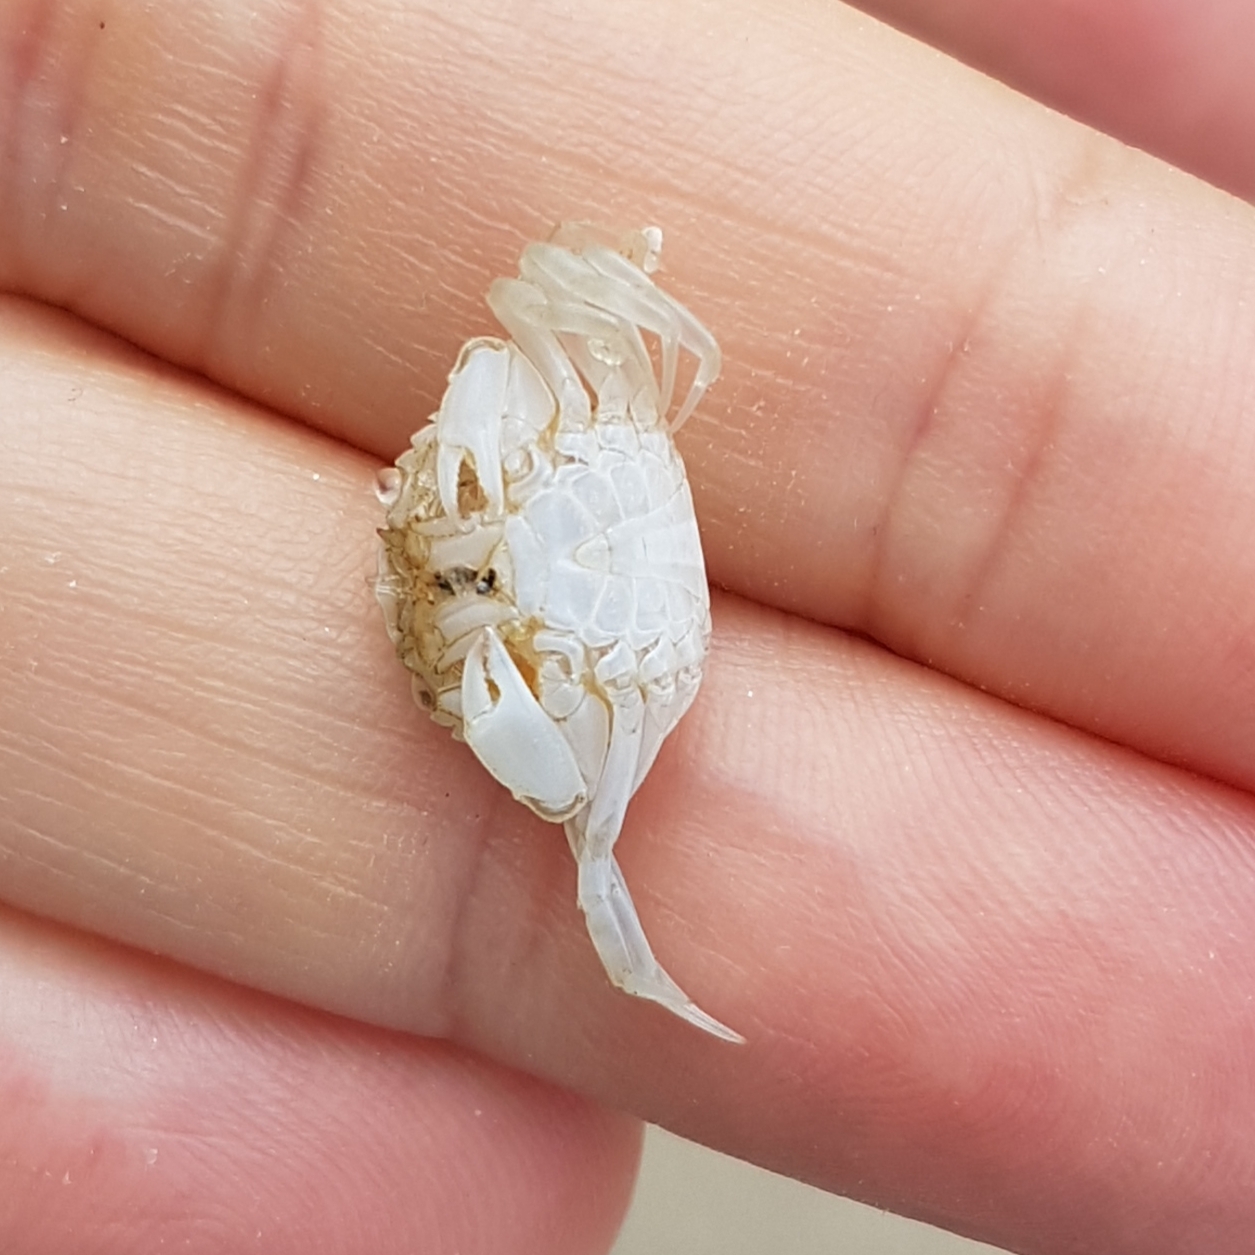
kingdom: Animalia
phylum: Arthropoda
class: Malacostraca
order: Decapoda
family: Carcinidae
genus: Carcinus
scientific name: Carcinus maenas
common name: European green crab
